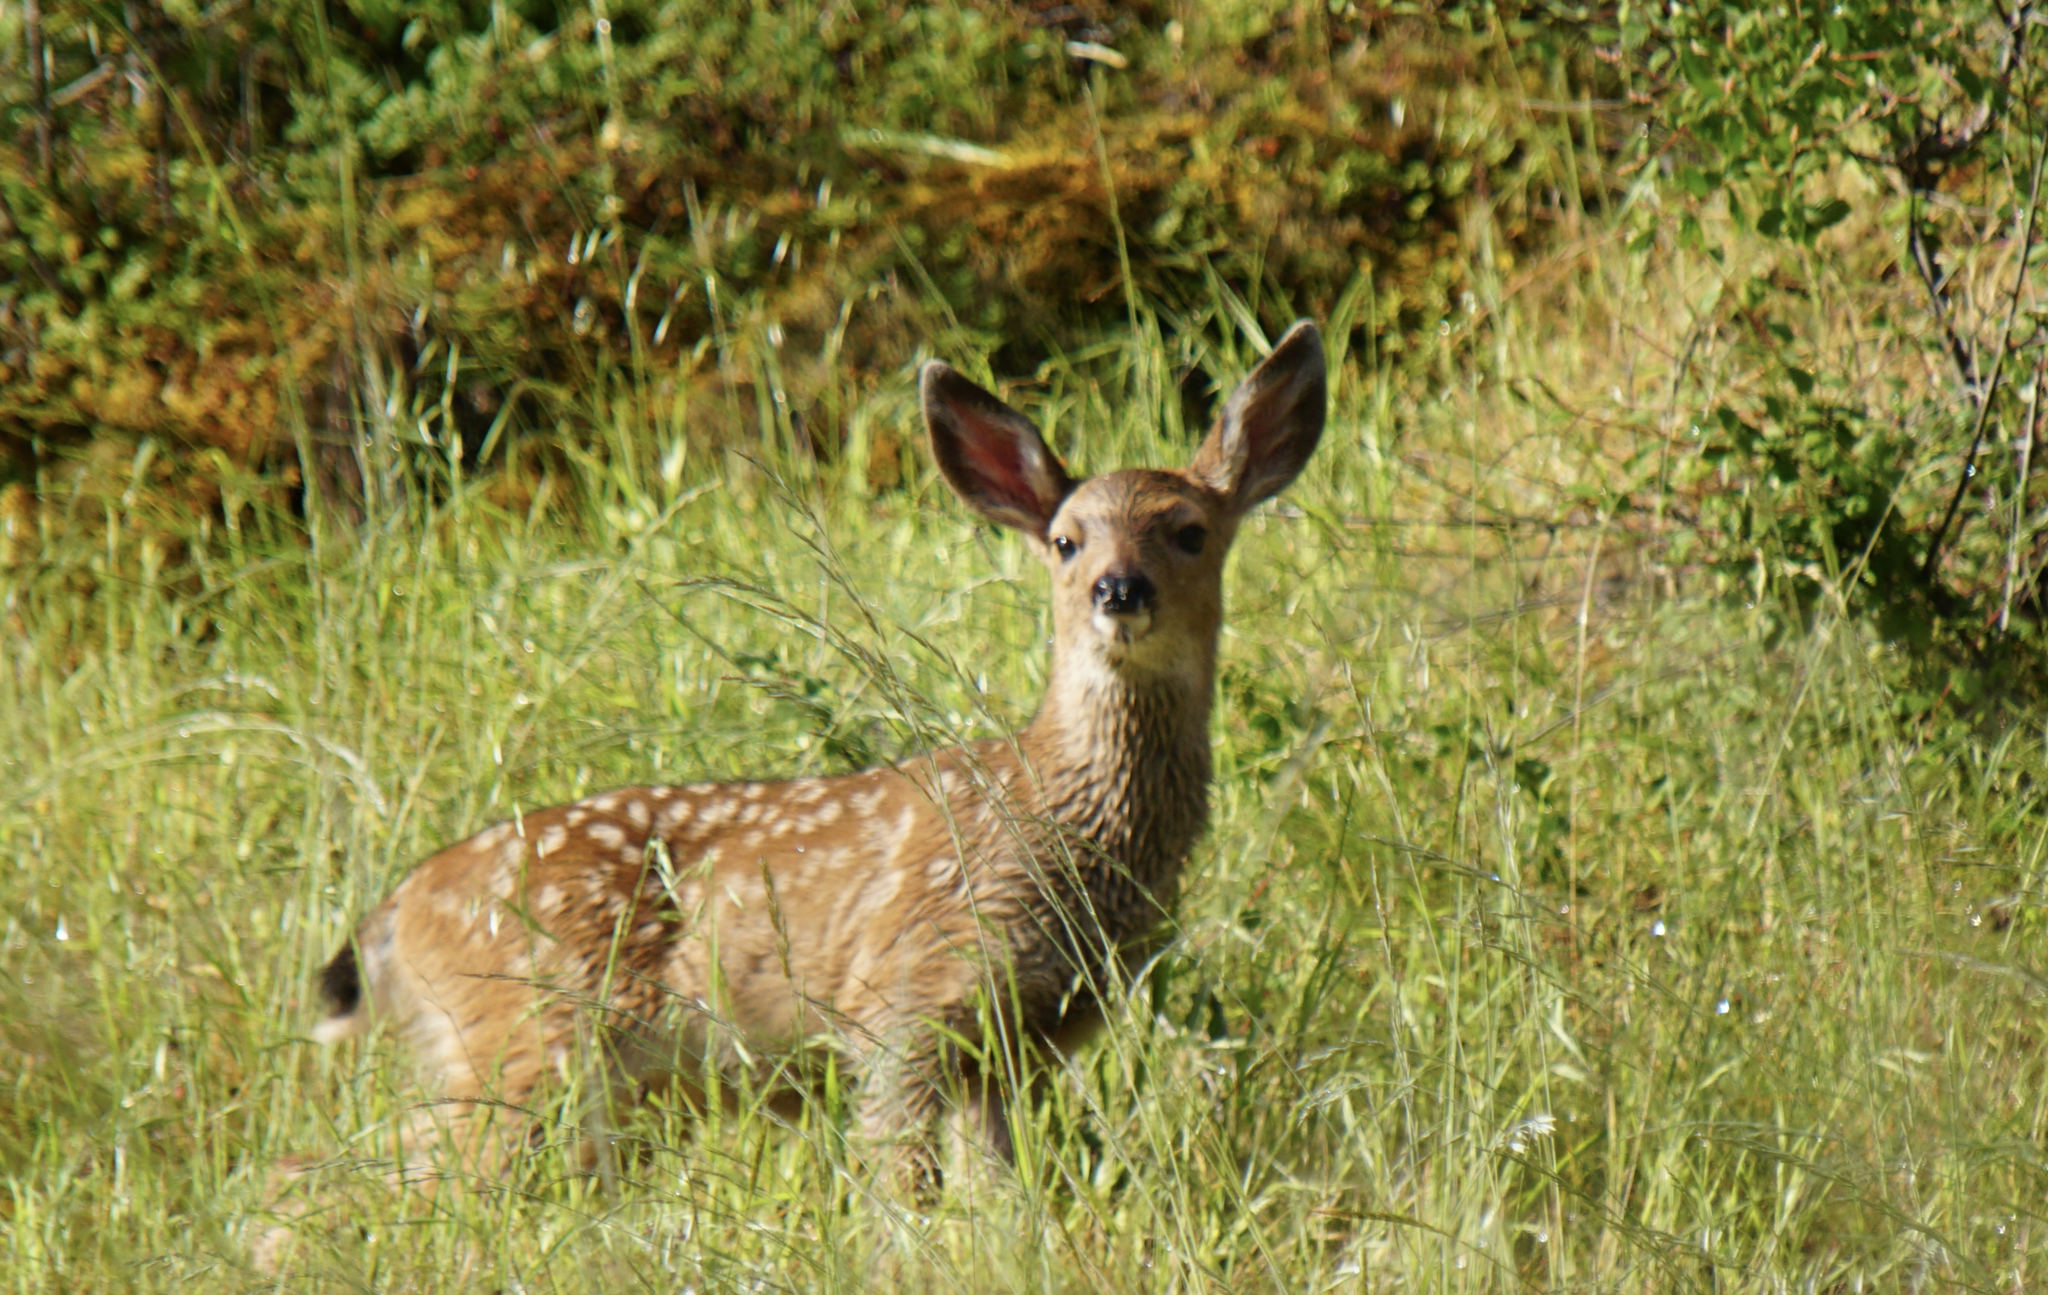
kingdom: Animalia
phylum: Chordata
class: Mammalia
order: Artiodactyla
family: Cervidae
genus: Odocoileus
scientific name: Odocoileus hemionus
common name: Mule deer
